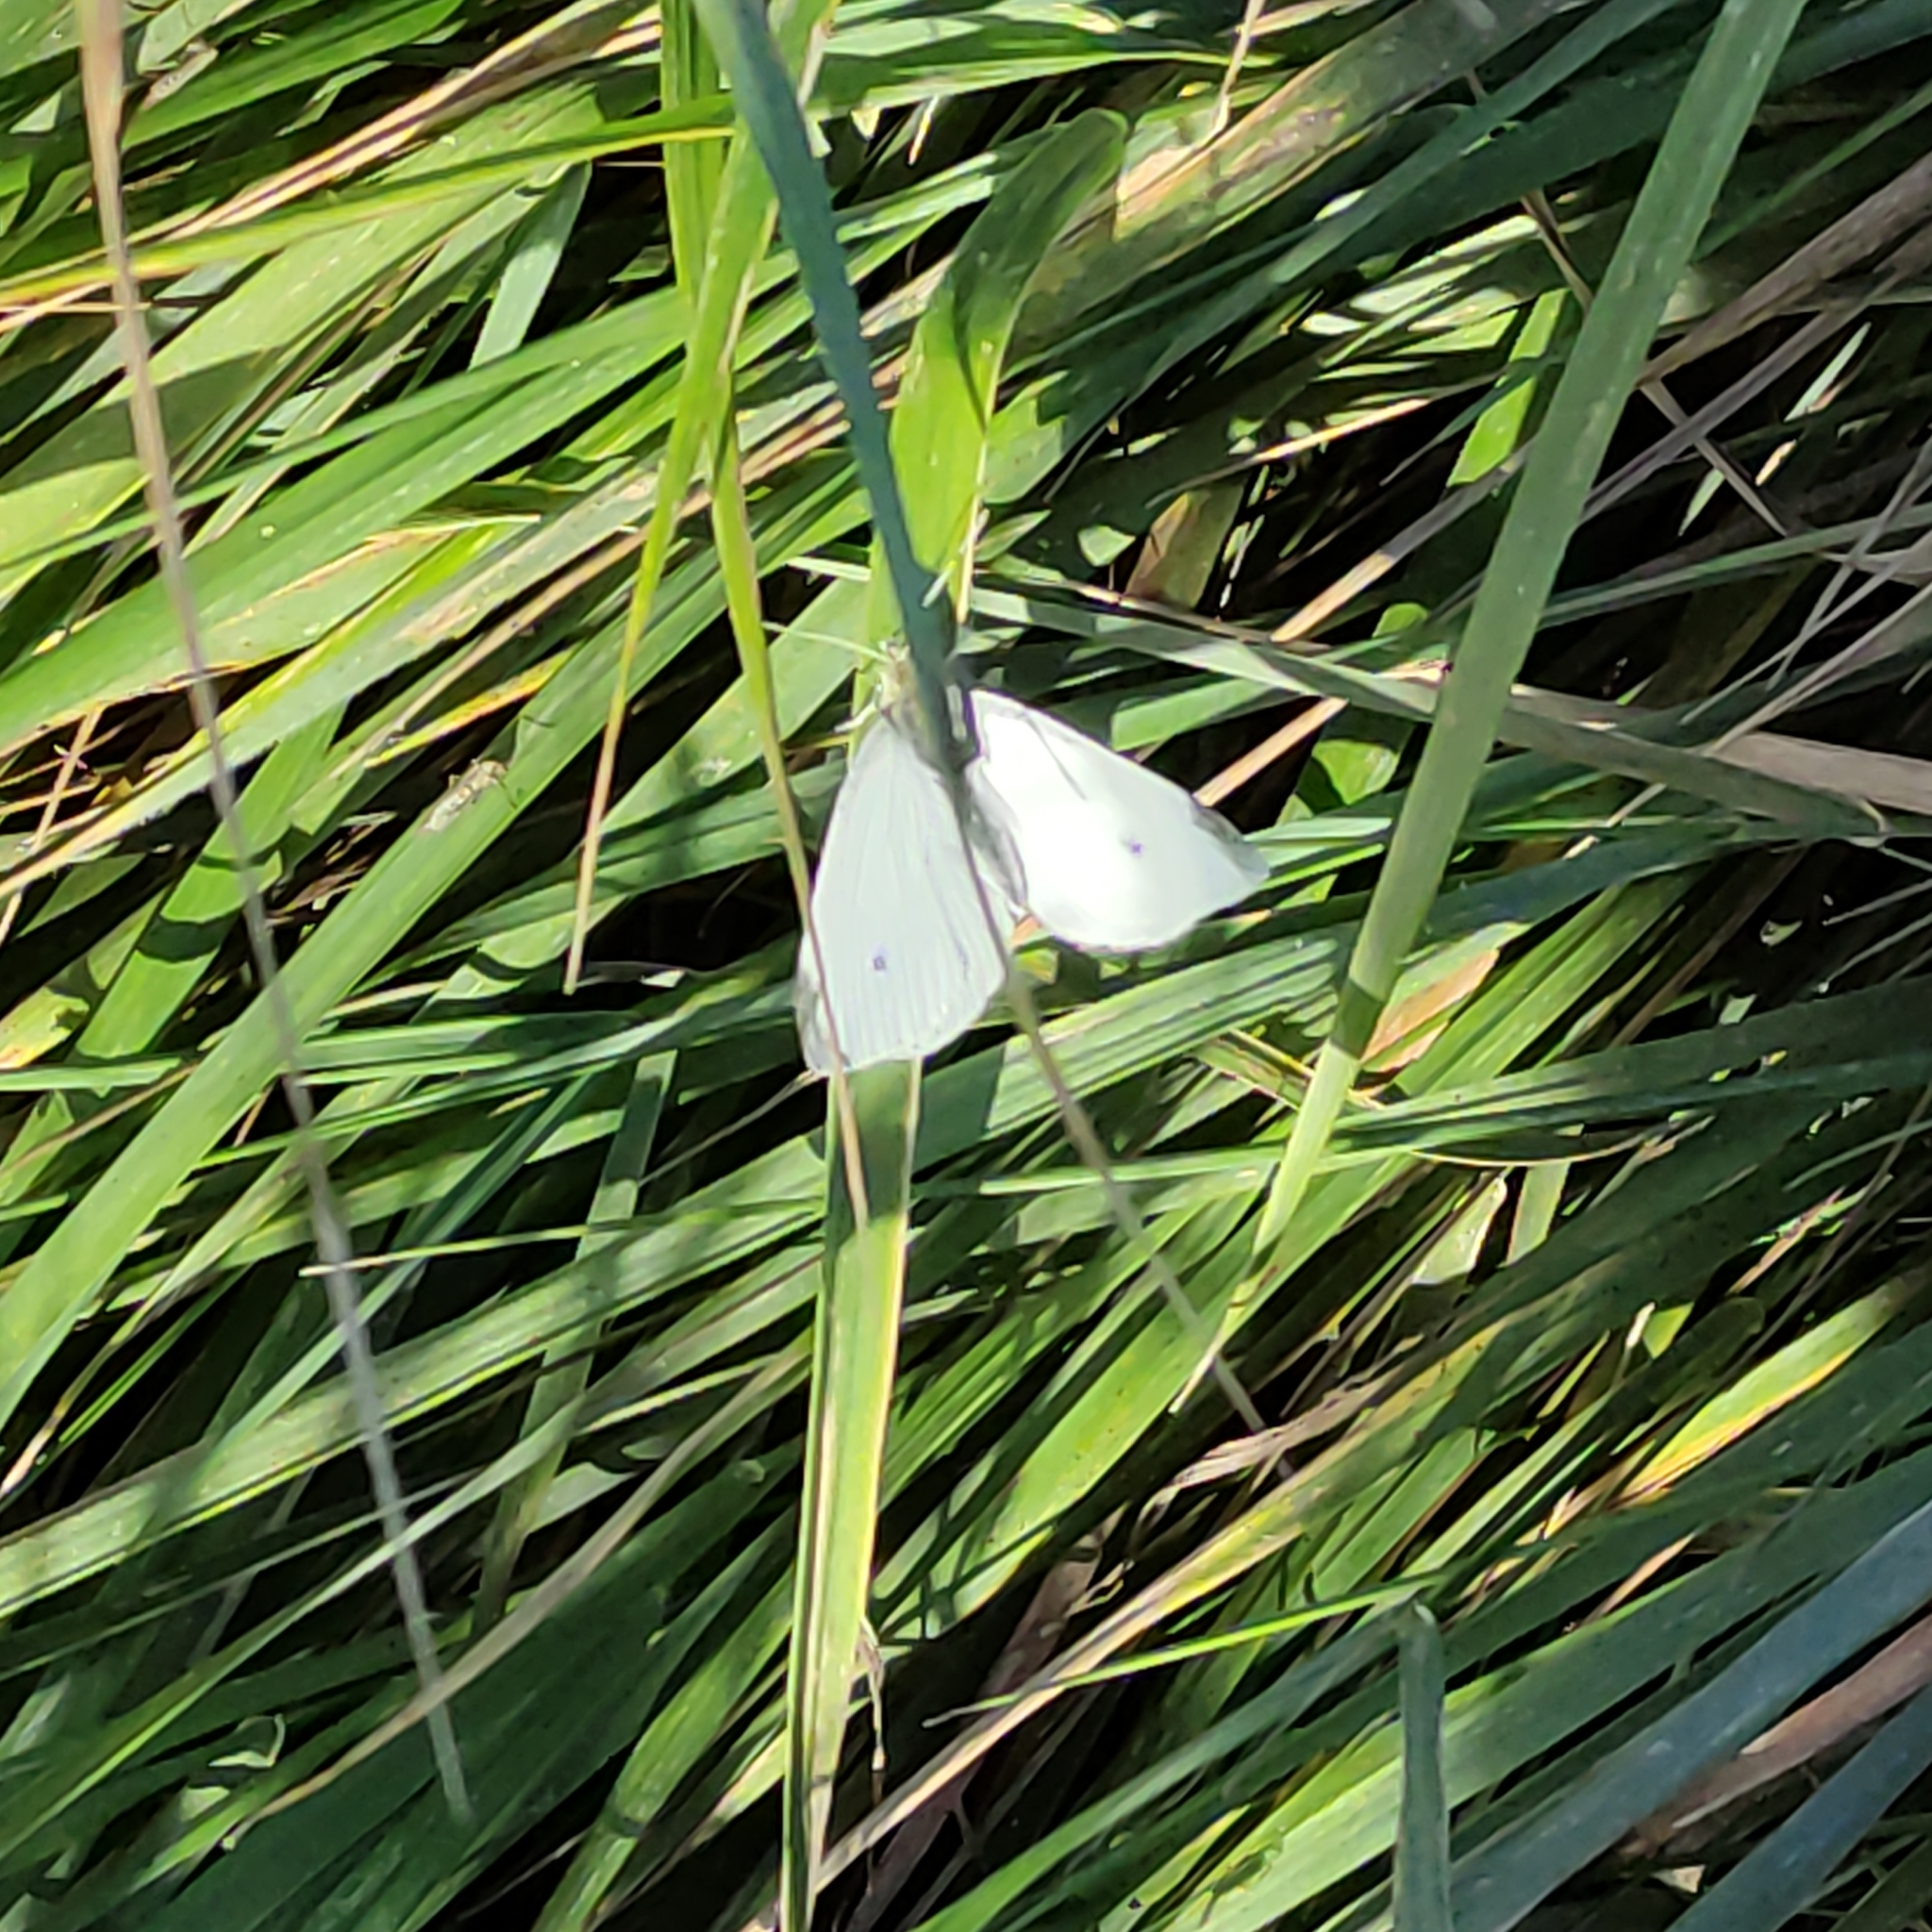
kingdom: Animalia
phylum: Arthropoda
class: Insecta
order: Lepidoptera
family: Pieridae
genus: Pieris
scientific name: Pieris rapae
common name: Small white
